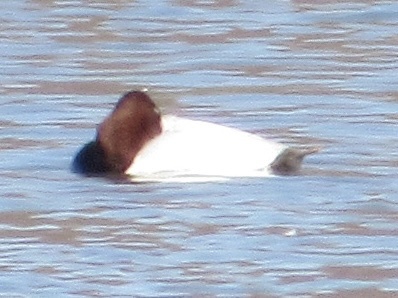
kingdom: Animalia
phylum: Chordata
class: Aves
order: Anseriformes
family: Anatidae
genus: Aythya
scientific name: Aythya valisineria
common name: Canvasback
